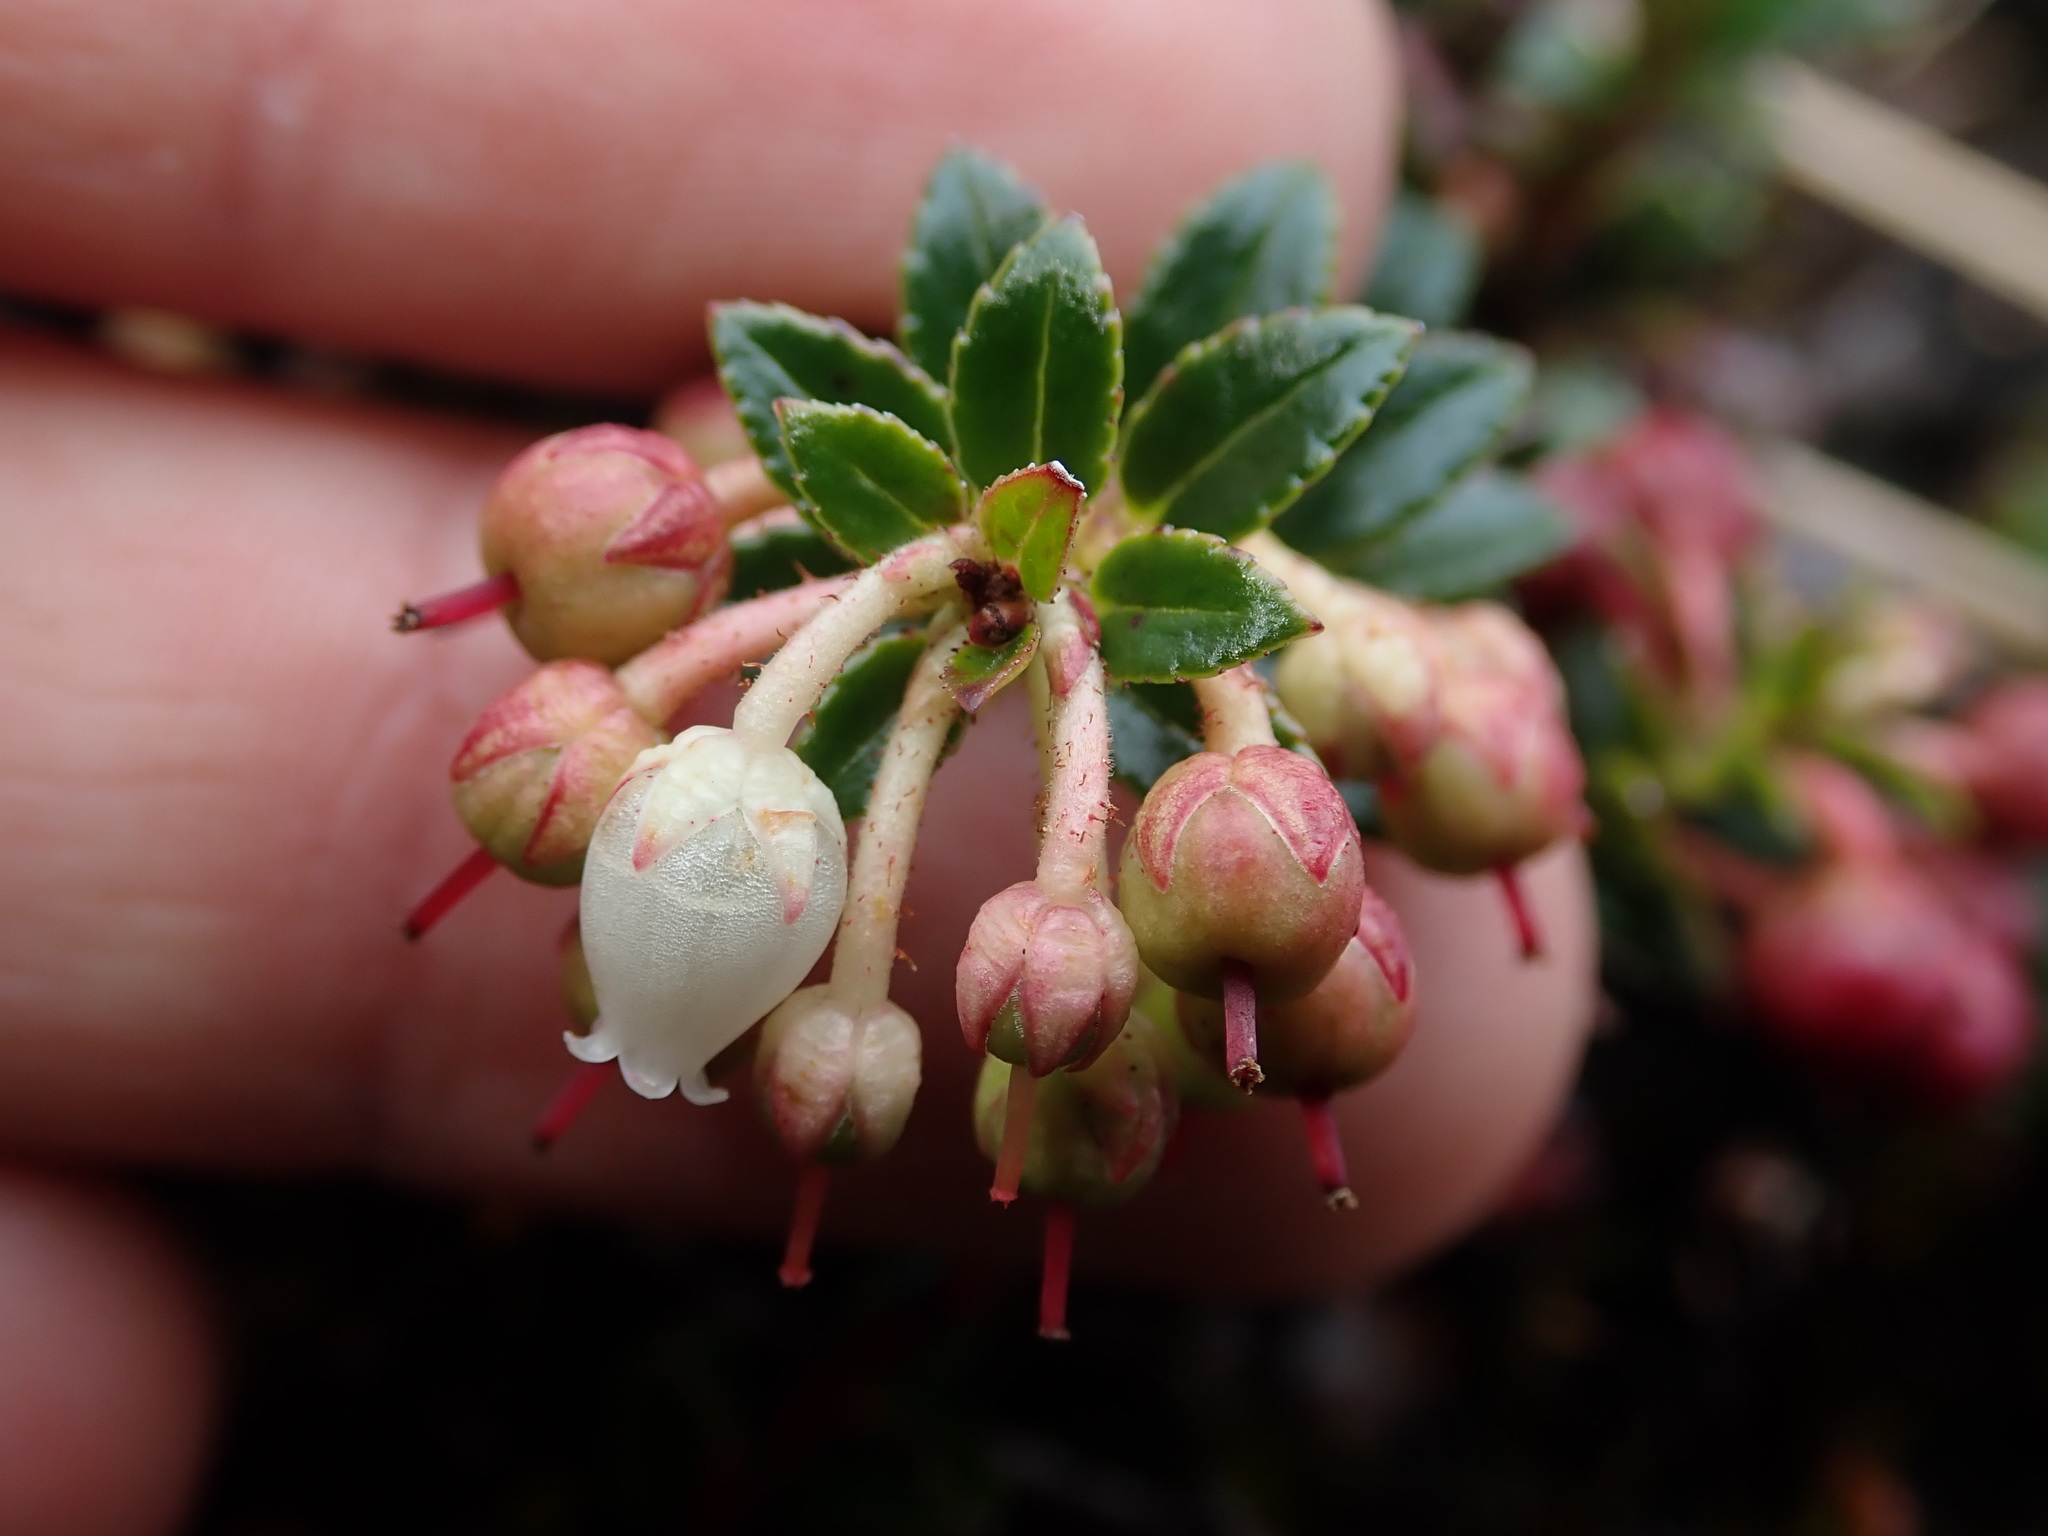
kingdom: Plantae
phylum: Tracheophyta
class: Magnoliopsida
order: Ericales
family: Ericaceae
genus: Gaultheria
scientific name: Gaultheria myrsinoides
